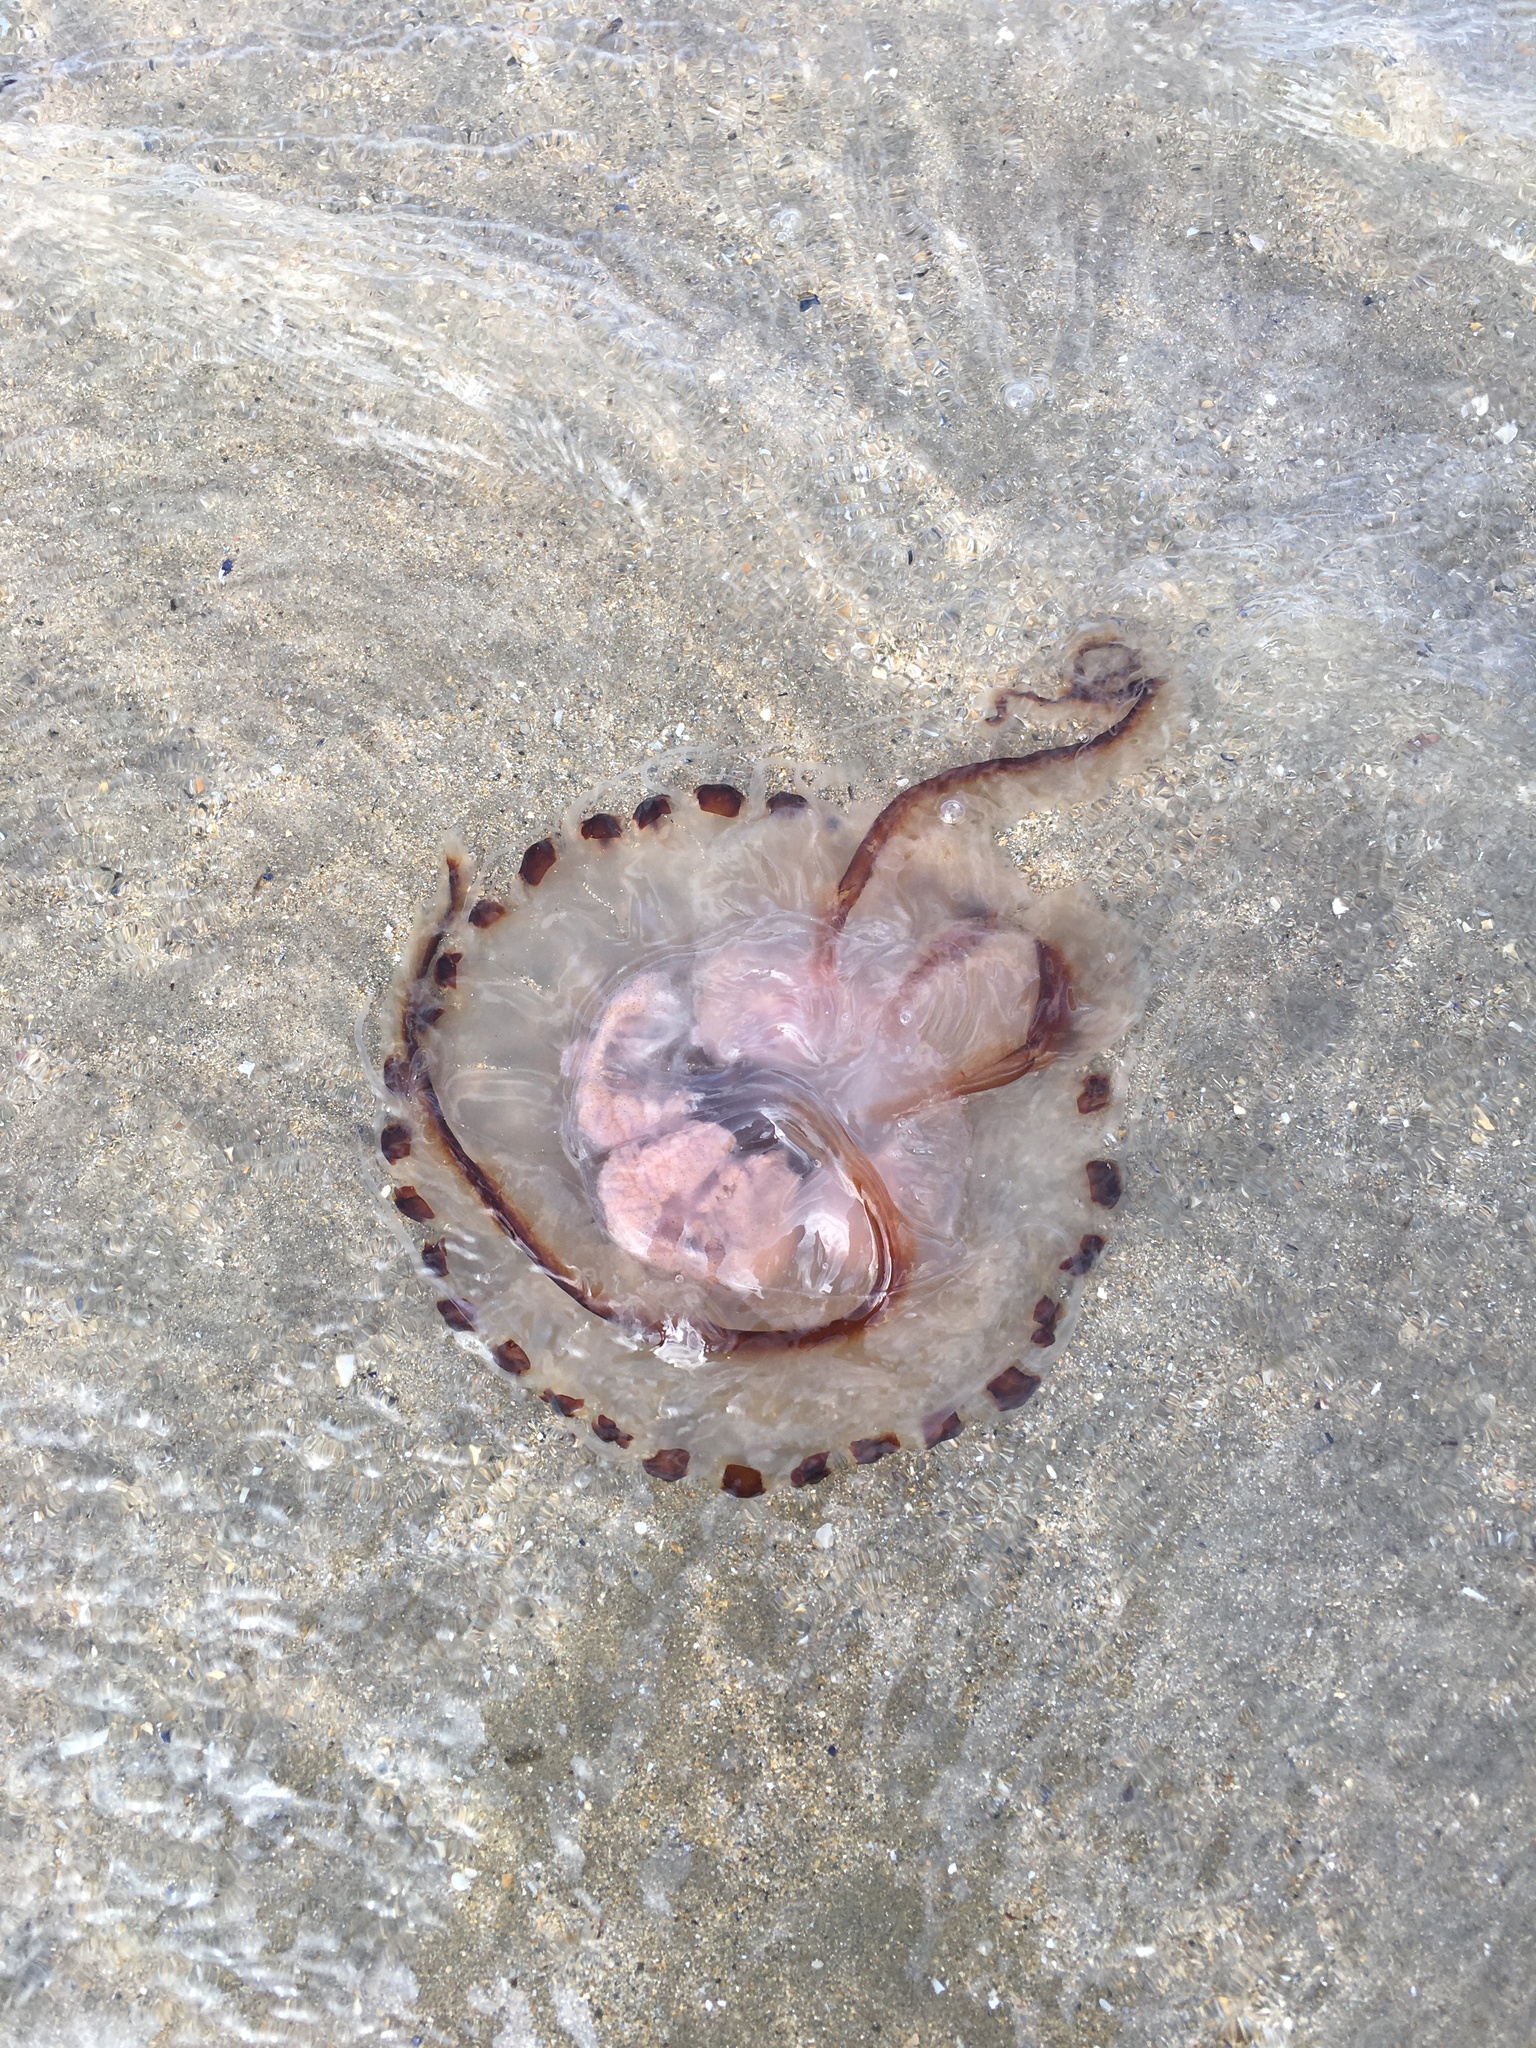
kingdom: Animalia
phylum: Cnidaria
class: Scyphozoa
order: Semaeostomeae
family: Pelagiidae
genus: Chrysaora
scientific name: Chrysaora hysoscella
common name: Compass jellyfish
